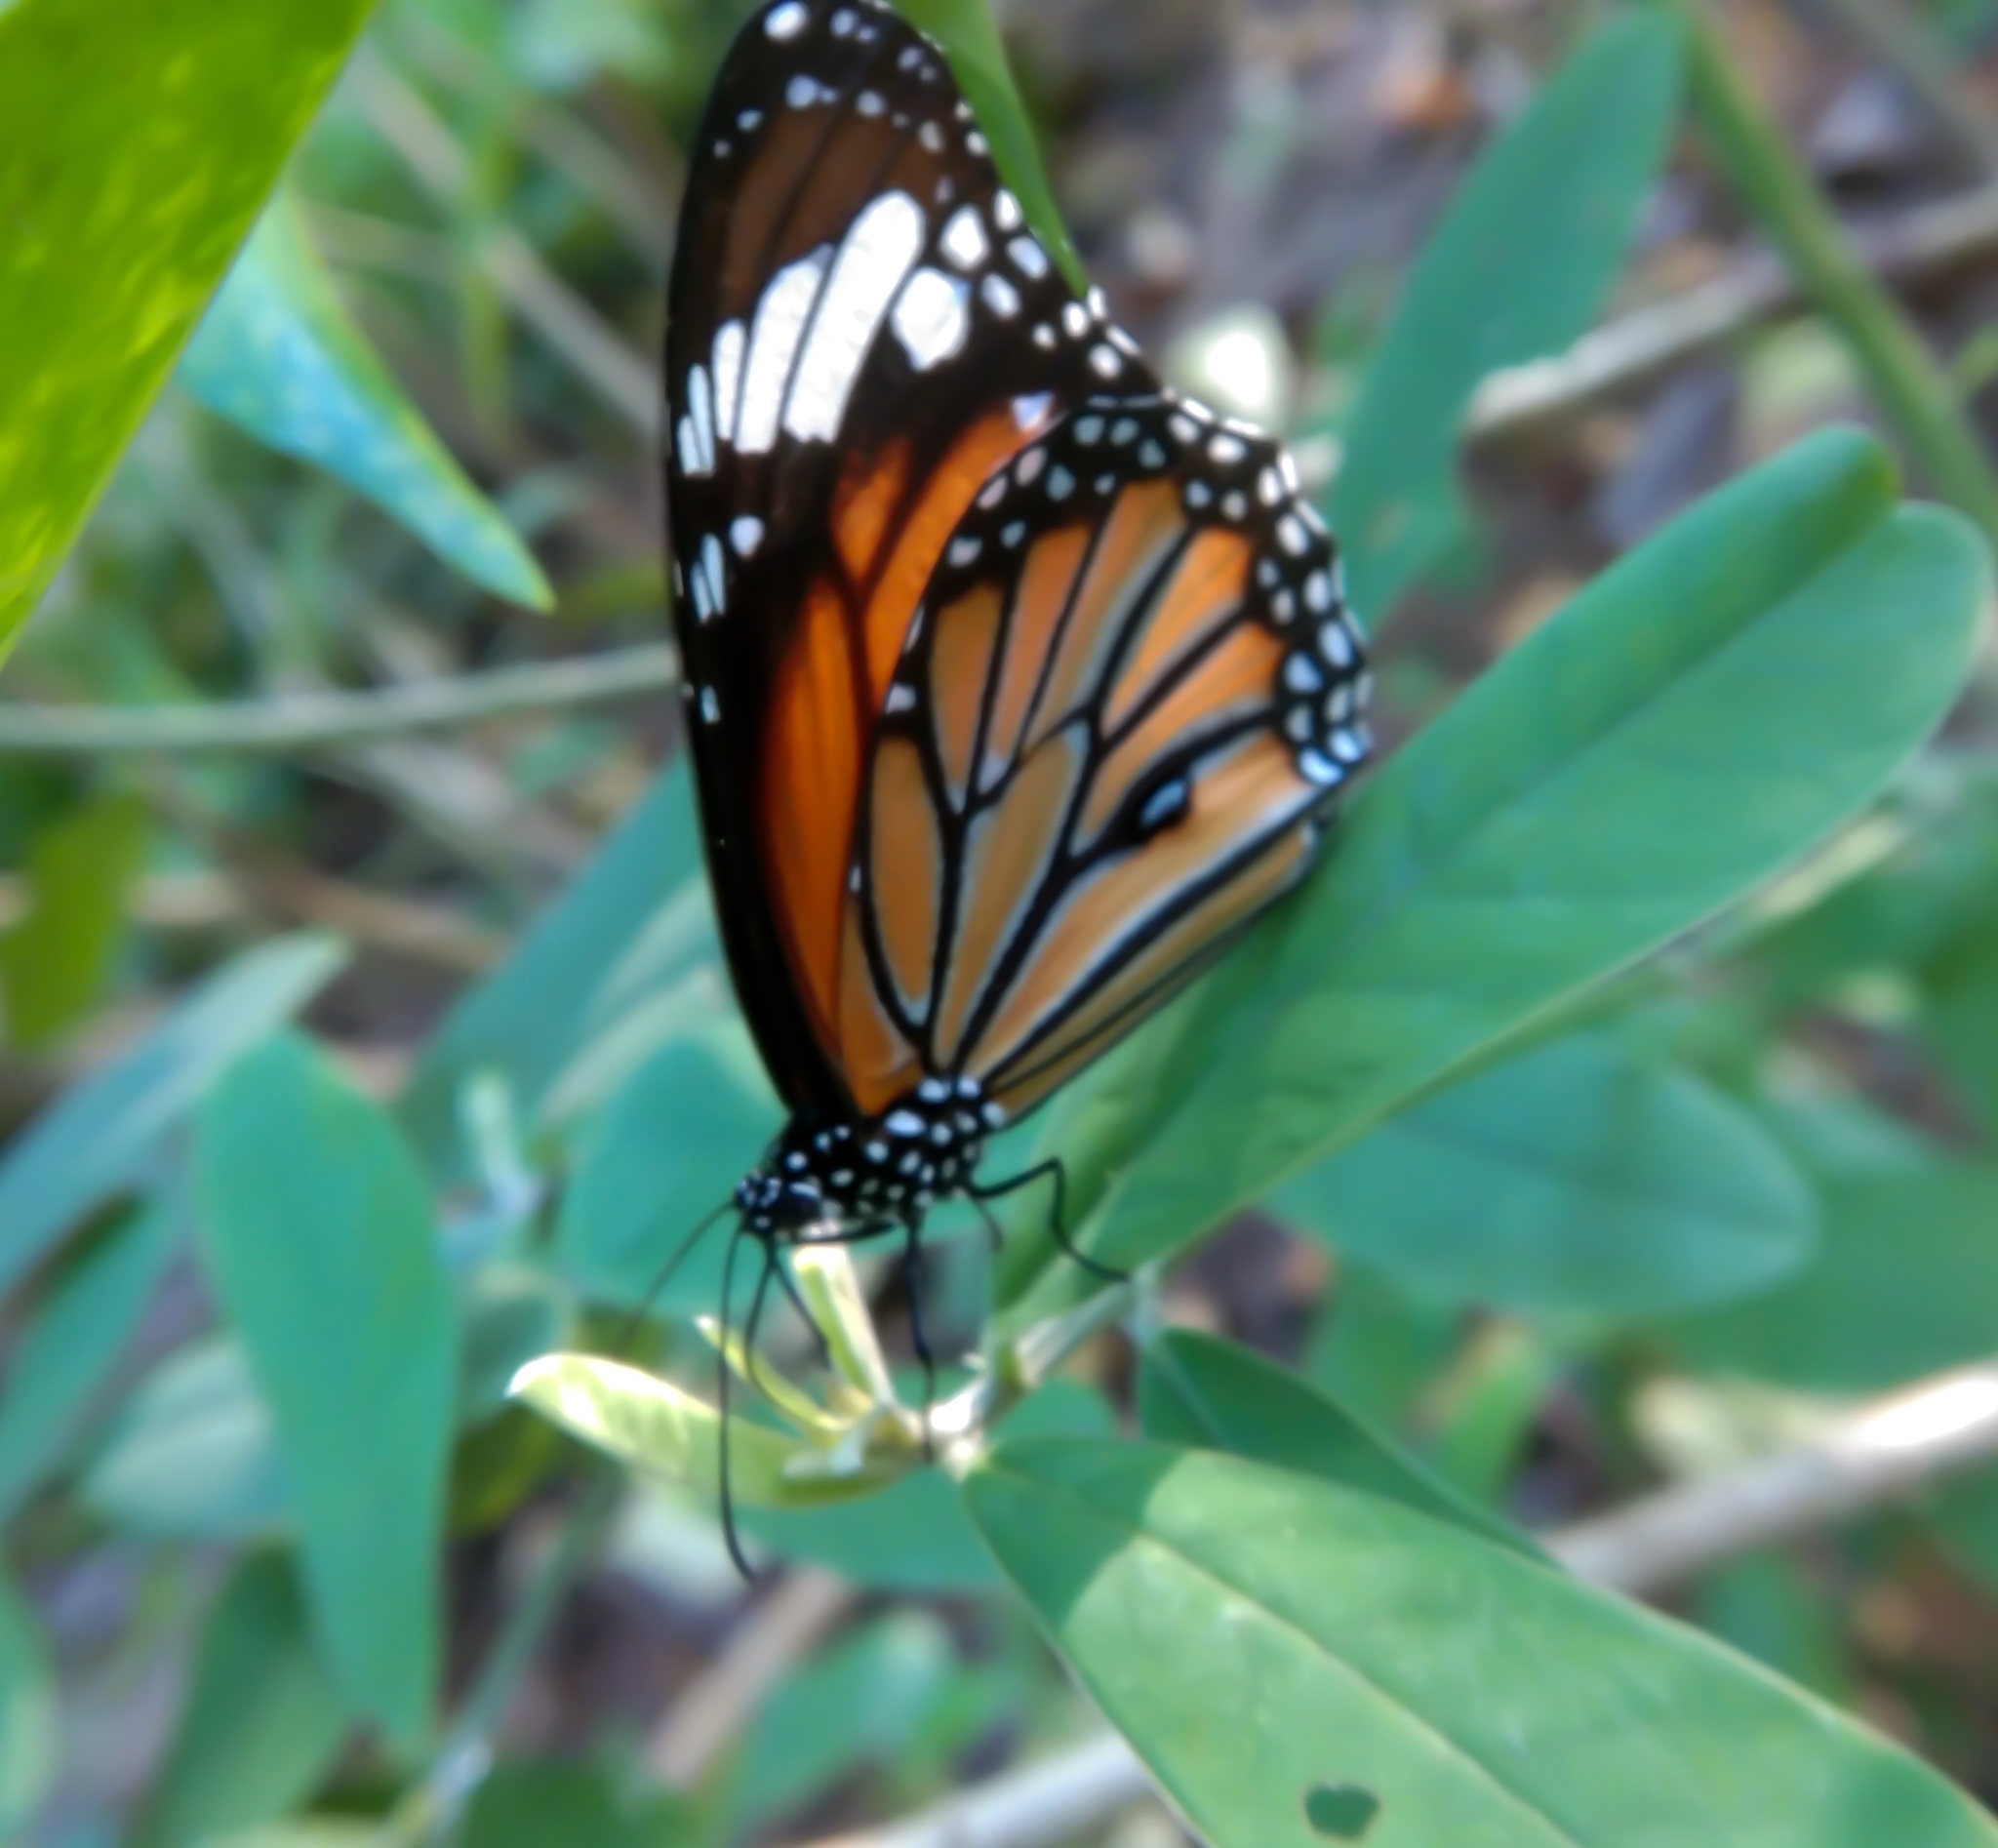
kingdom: Animalia
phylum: Arthropoda
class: Insecta
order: Lepidoptera
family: Nymphalidae
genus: Danaus
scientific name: Danaus genutia
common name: Common tiger butterfly
